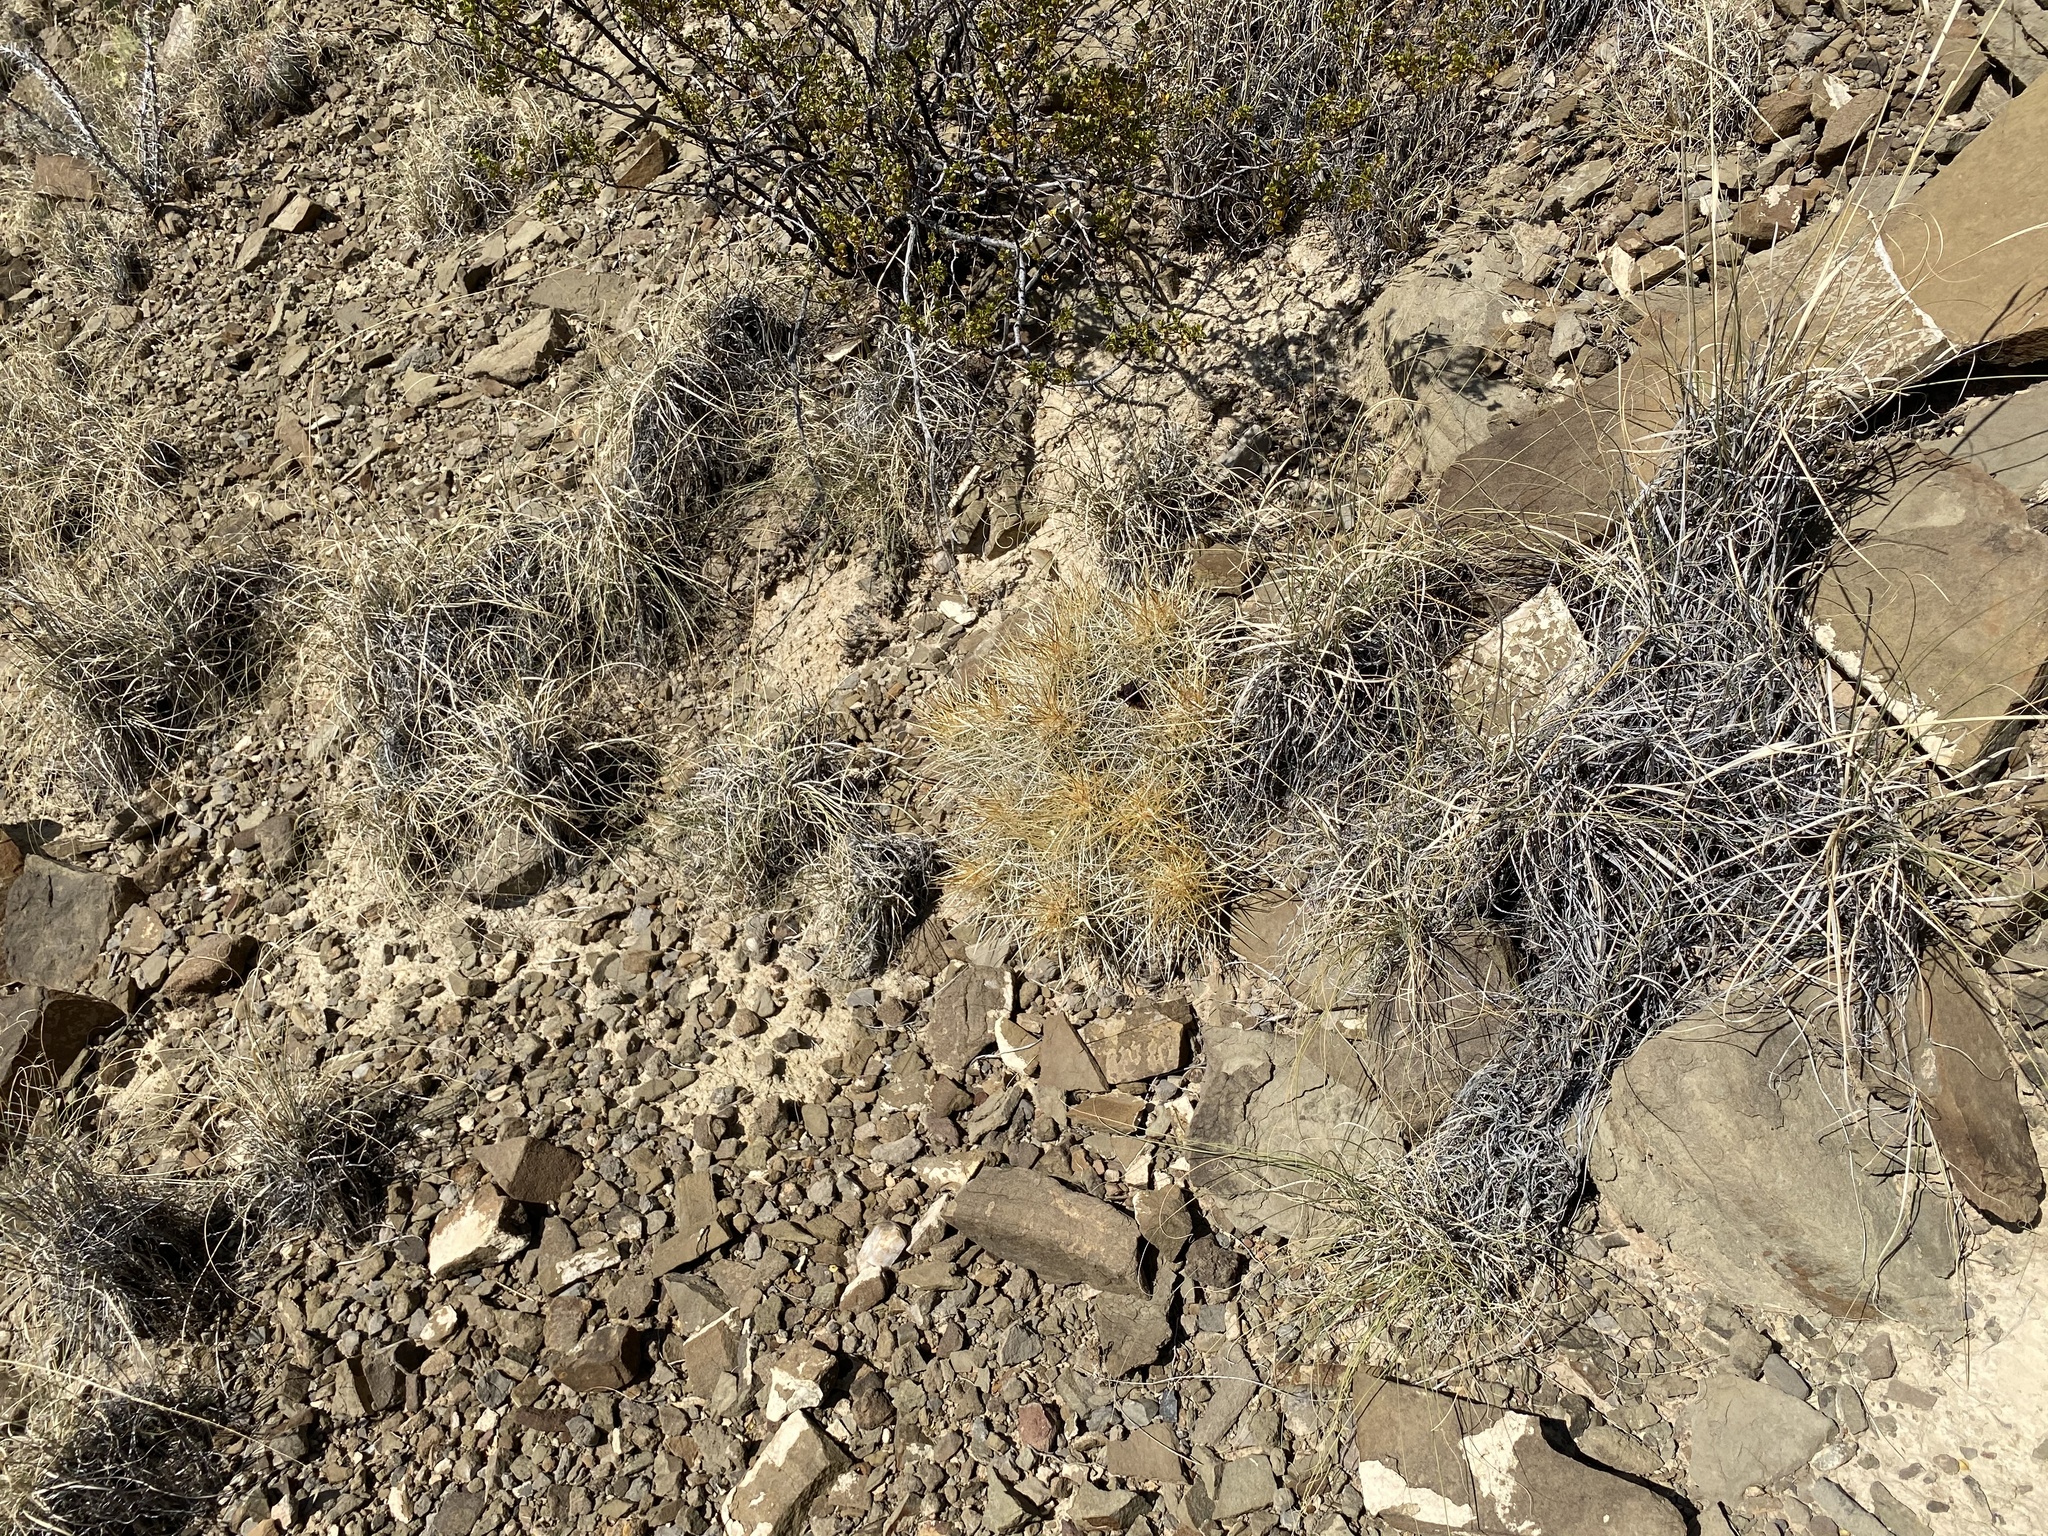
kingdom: Plantae
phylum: Tracheophyta
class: Magnoliopsida
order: Caryophyllales
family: Cactaceae
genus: Echinocereus
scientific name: Echinocereus stramineus
